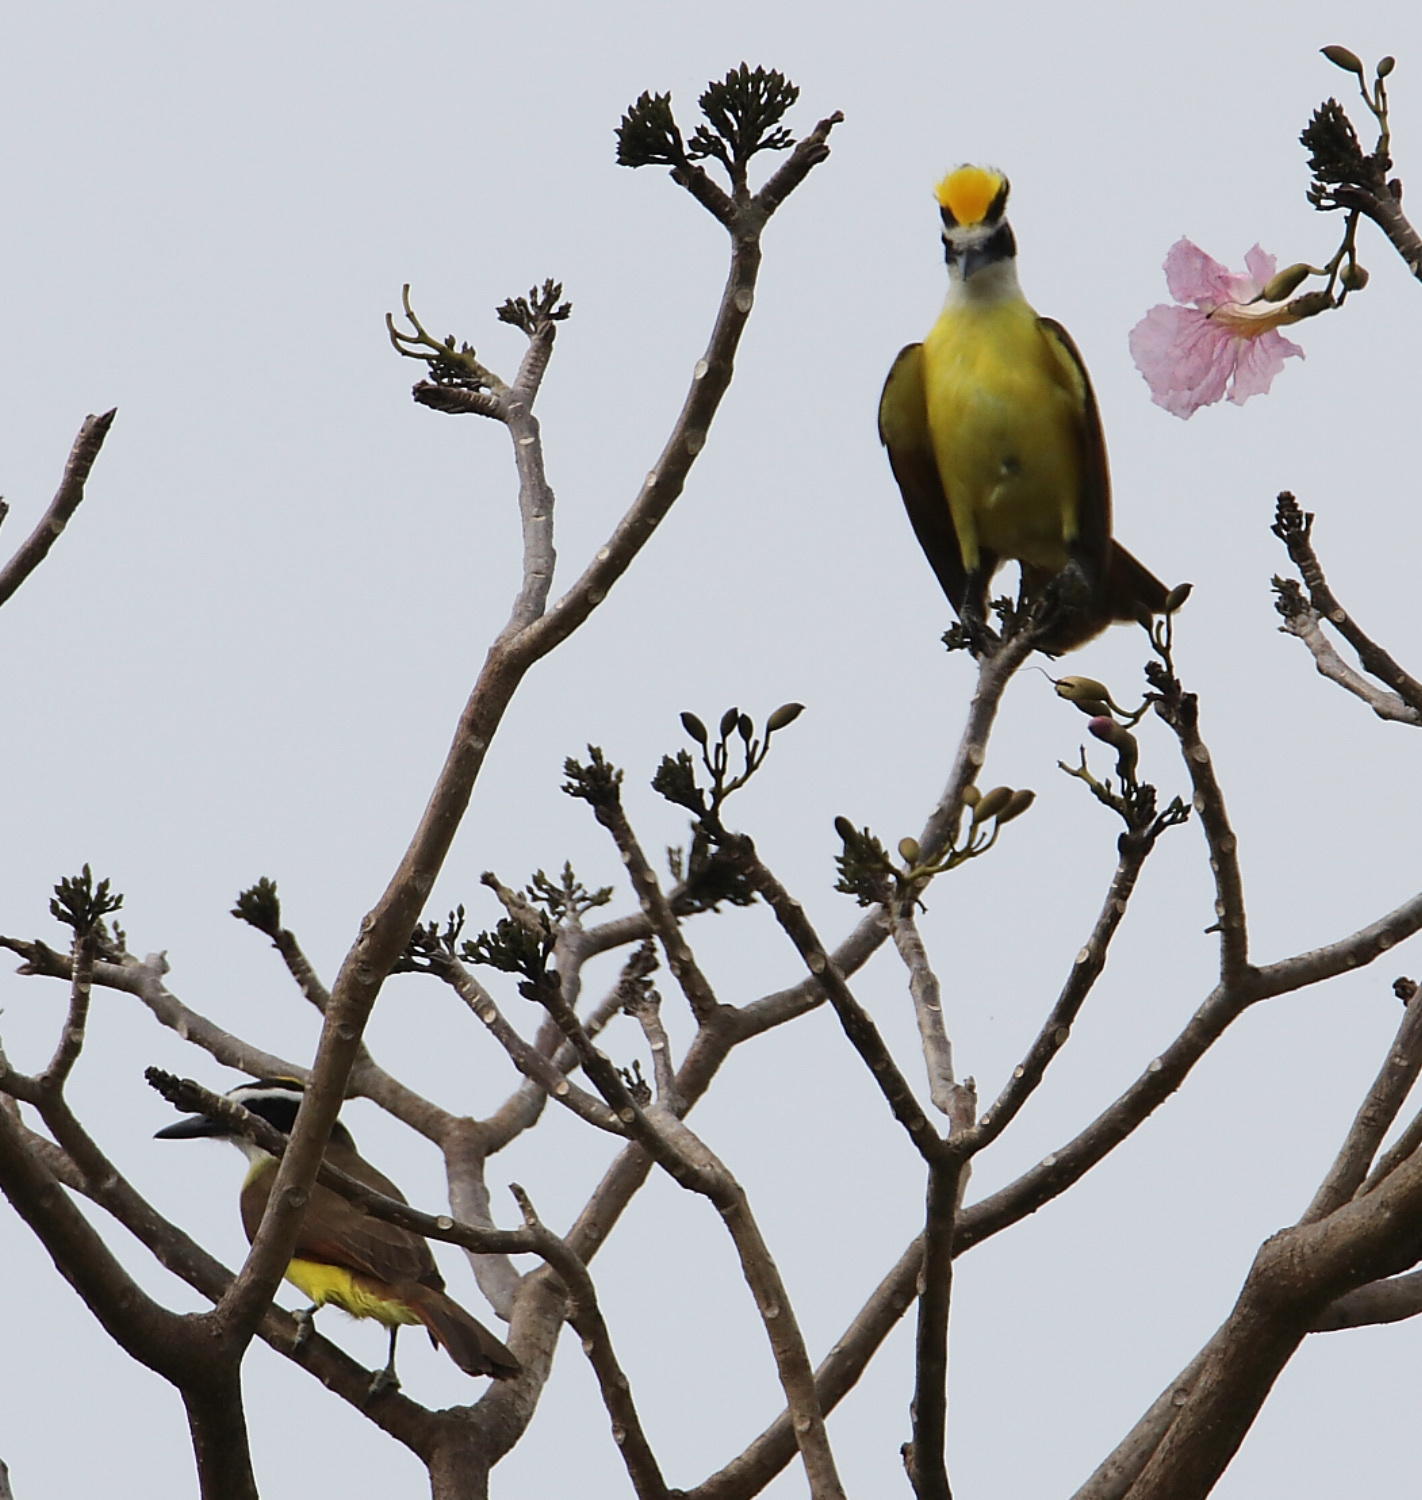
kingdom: Animalia
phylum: Chordata
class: Aves
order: Passeriformes
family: Tyrannidae
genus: Pitangus
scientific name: Pitangus sulphuratus
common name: Great kiskadee
